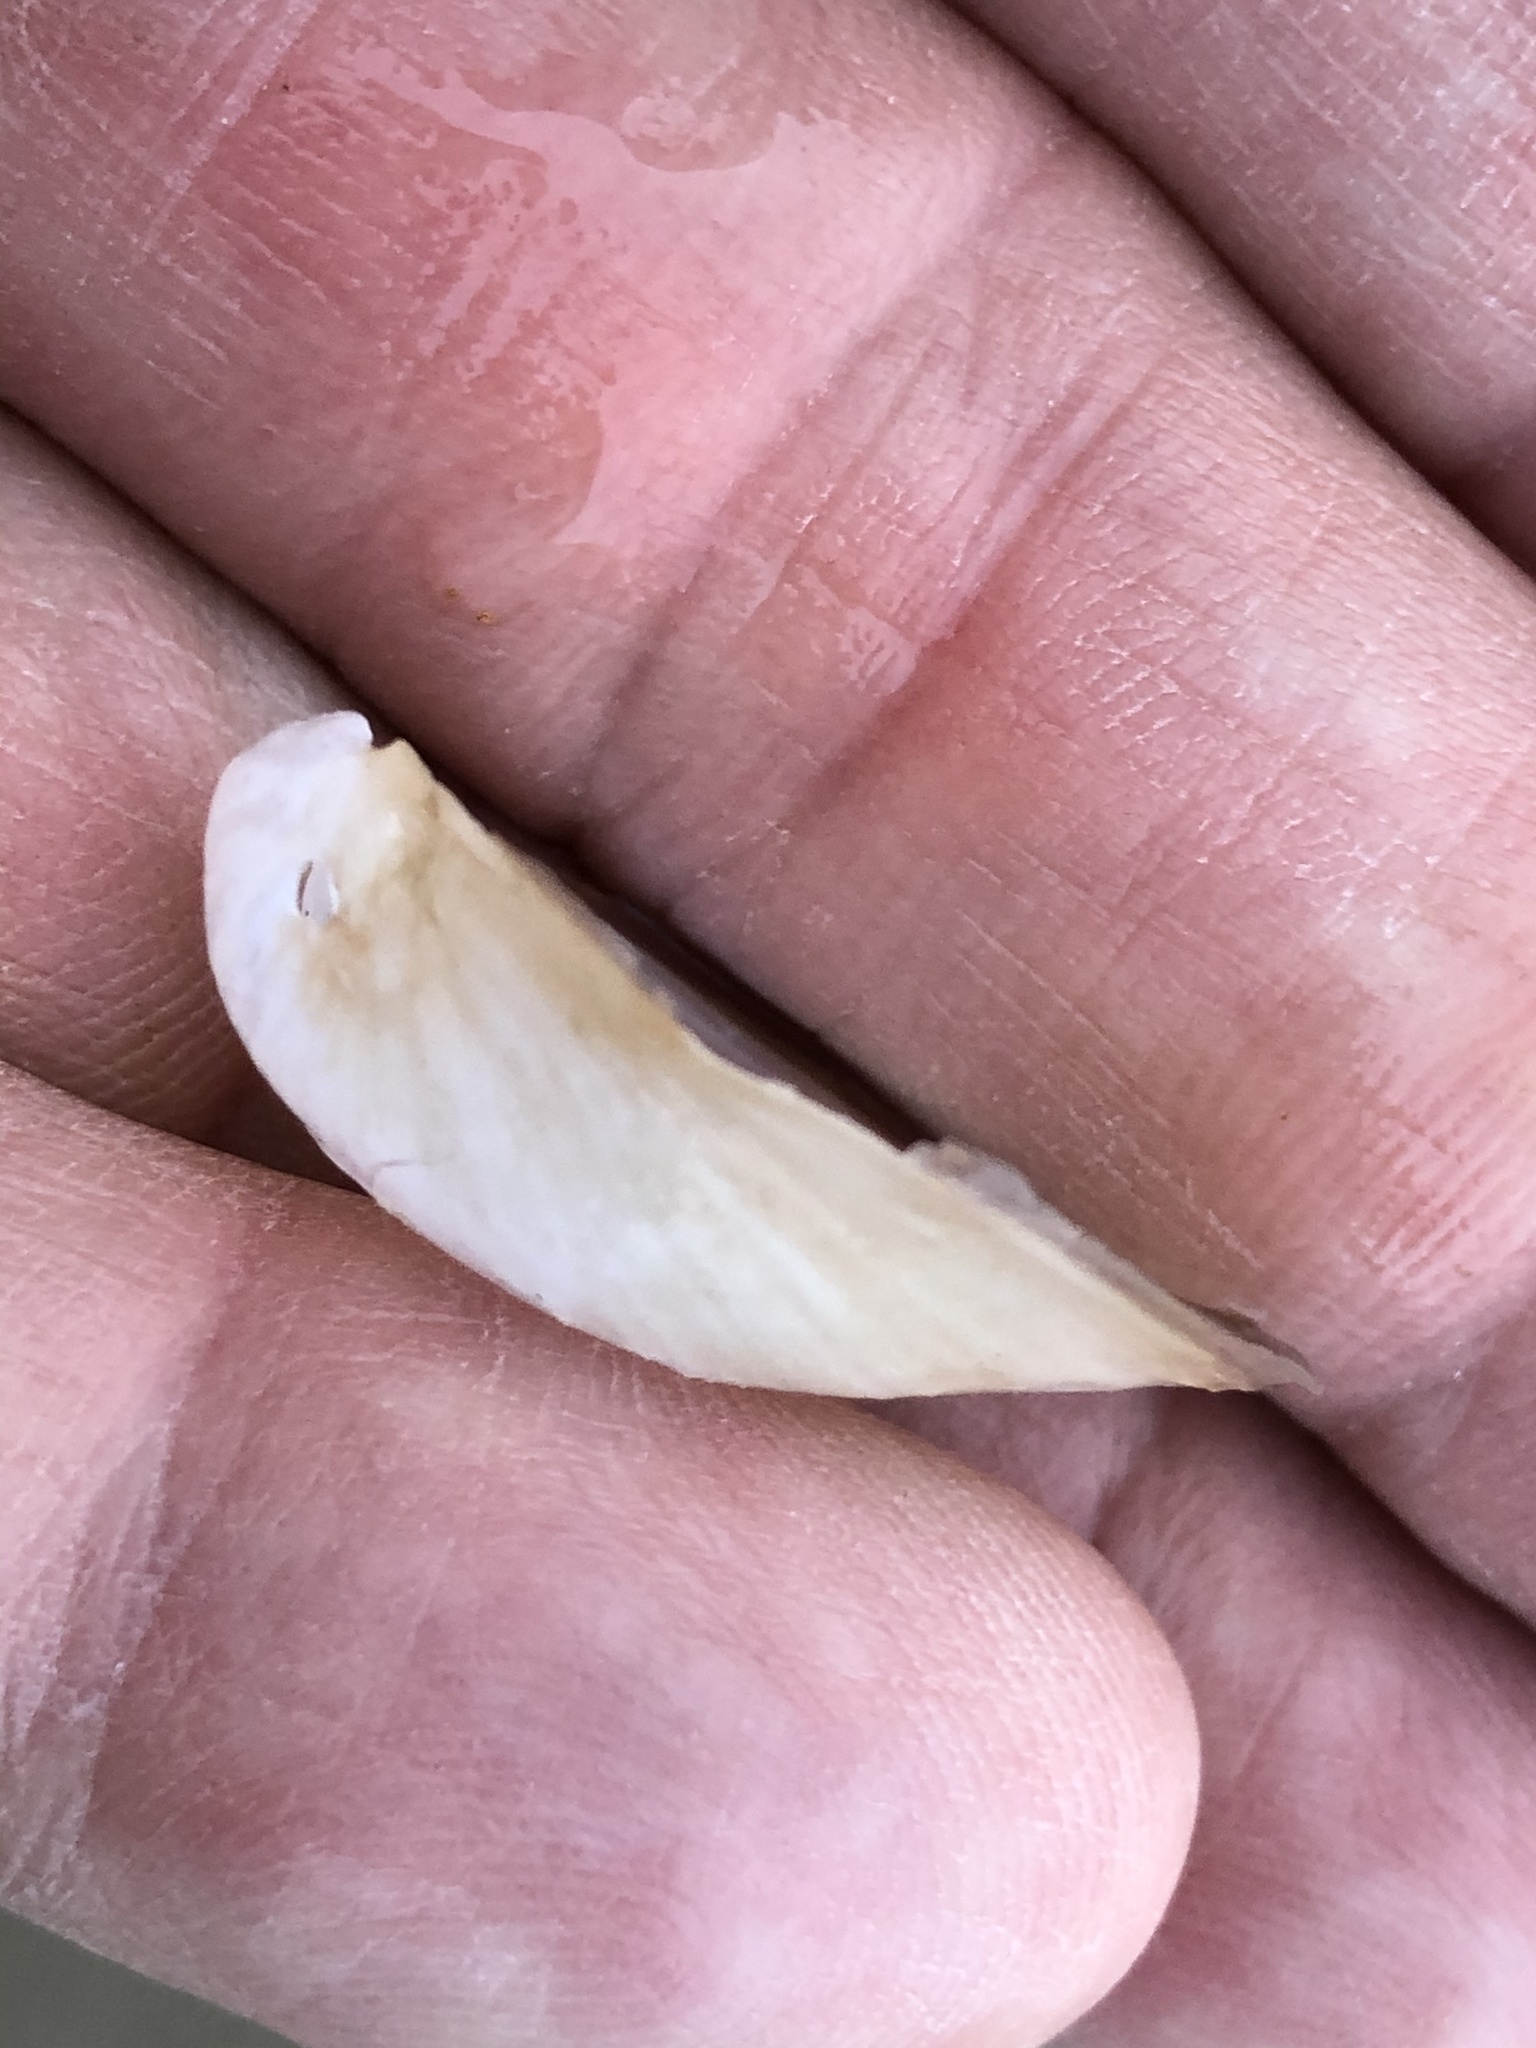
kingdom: Animalia
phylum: Mollusca
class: Bivalvia
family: Lyonsiidae
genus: Mytilimeria
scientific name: Mytilimeria nuttalli
